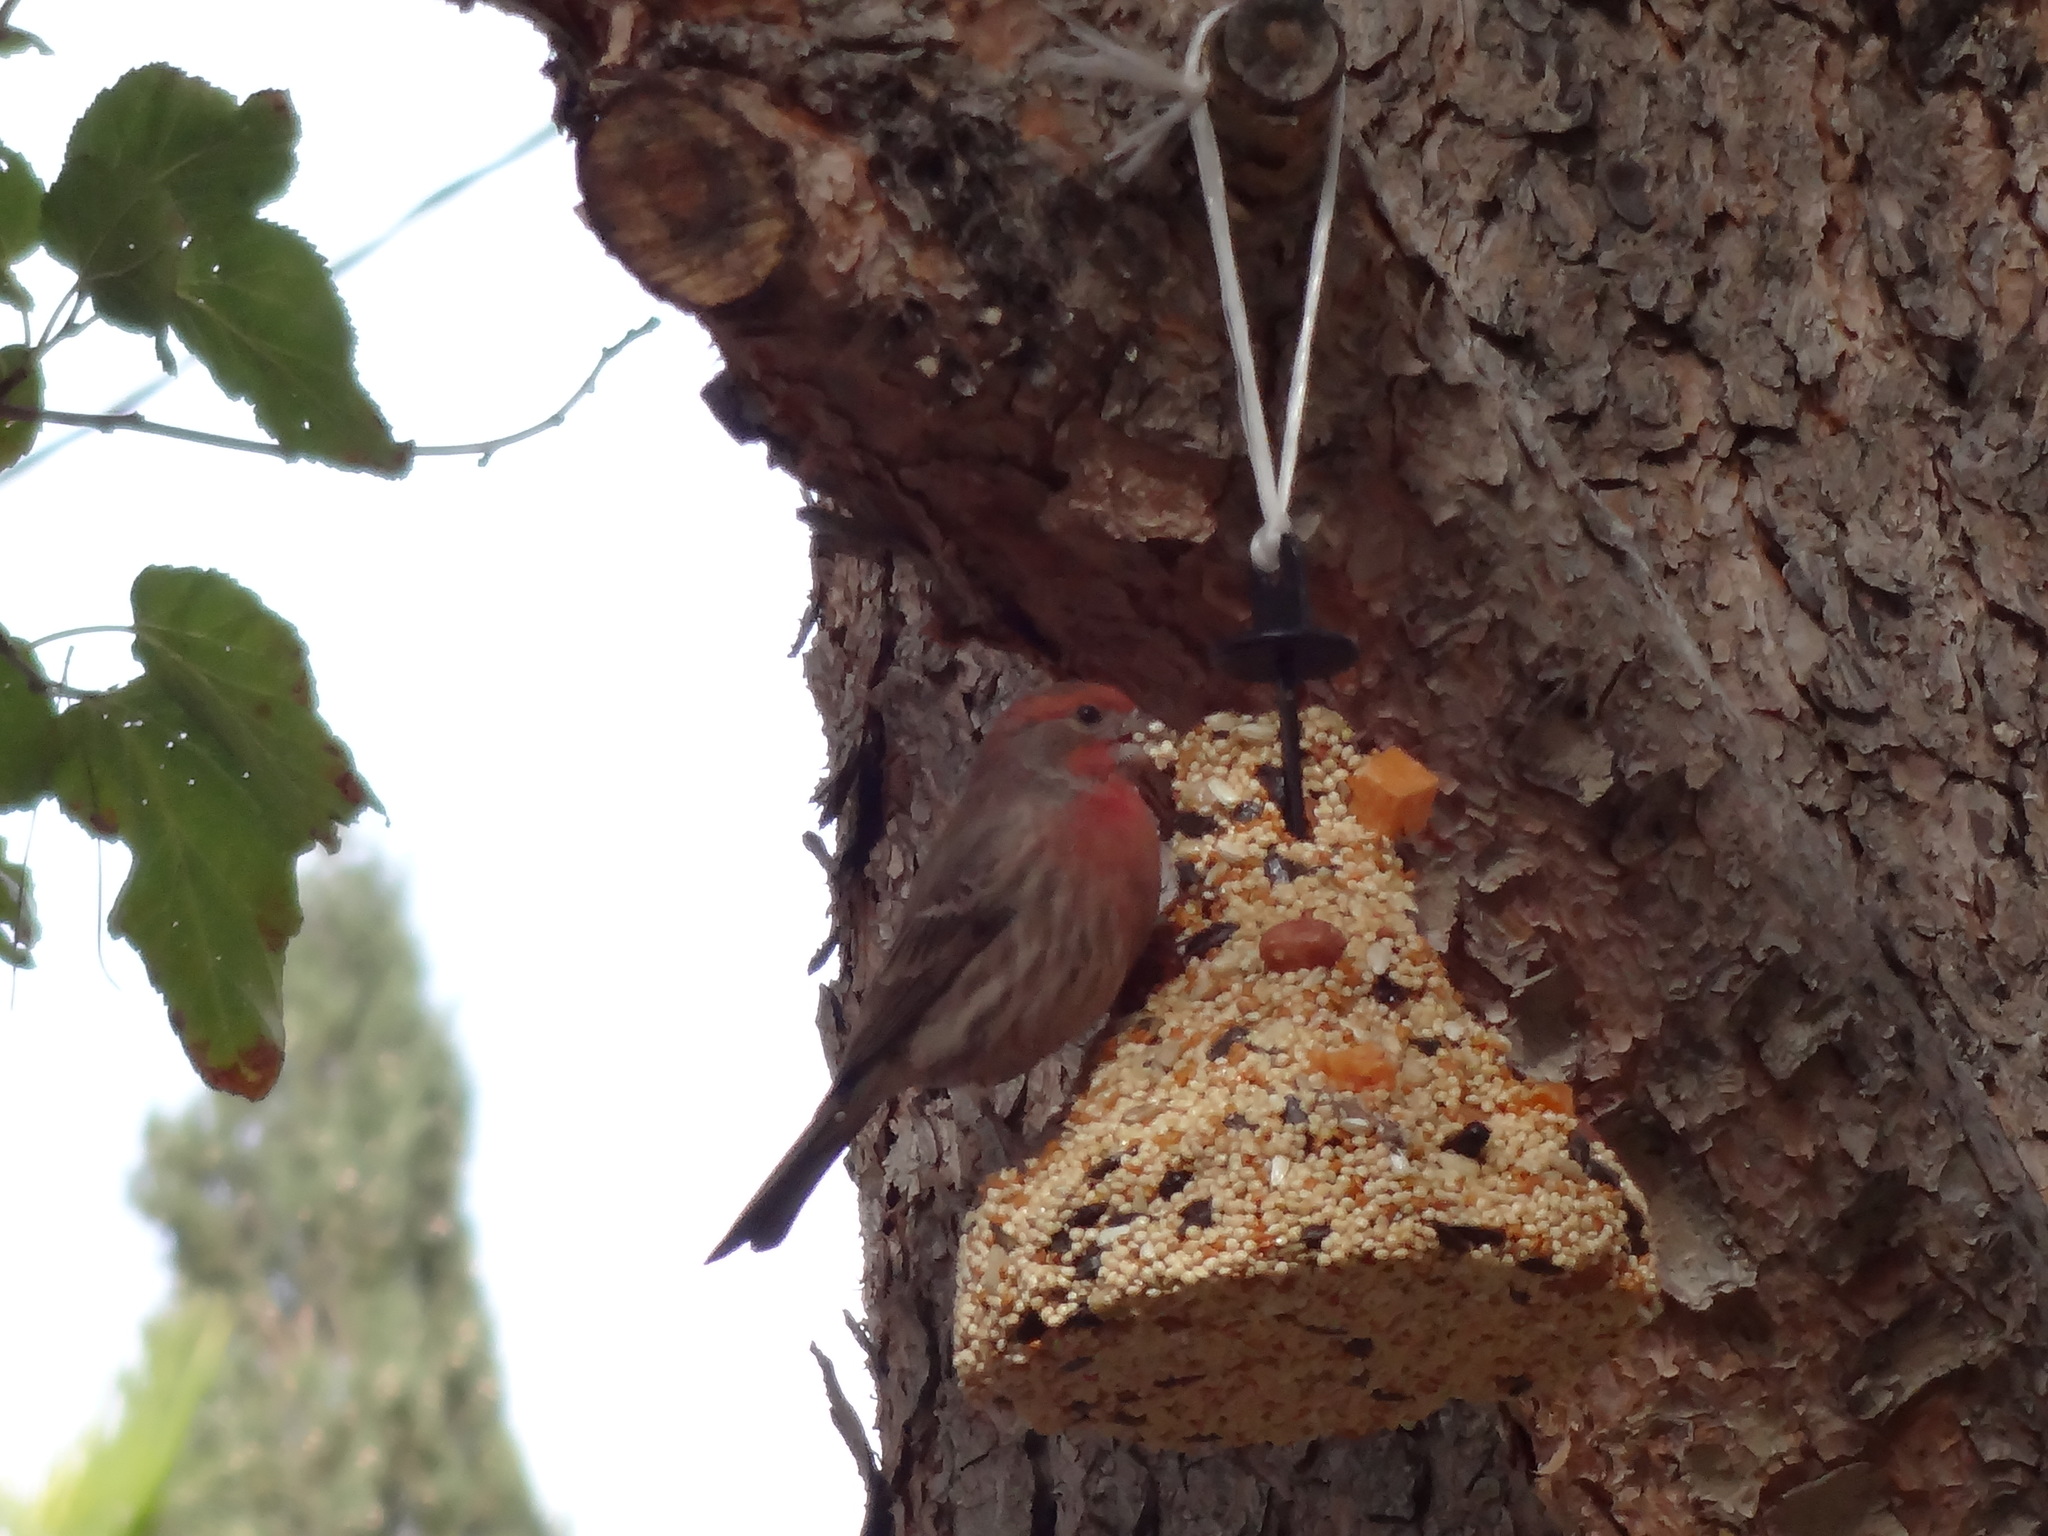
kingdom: Animalia
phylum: Chordata
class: Aves
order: Passeriformes
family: Fringillidae
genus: Haemorhous
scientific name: Haemorhous mexicanus
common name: House finch
